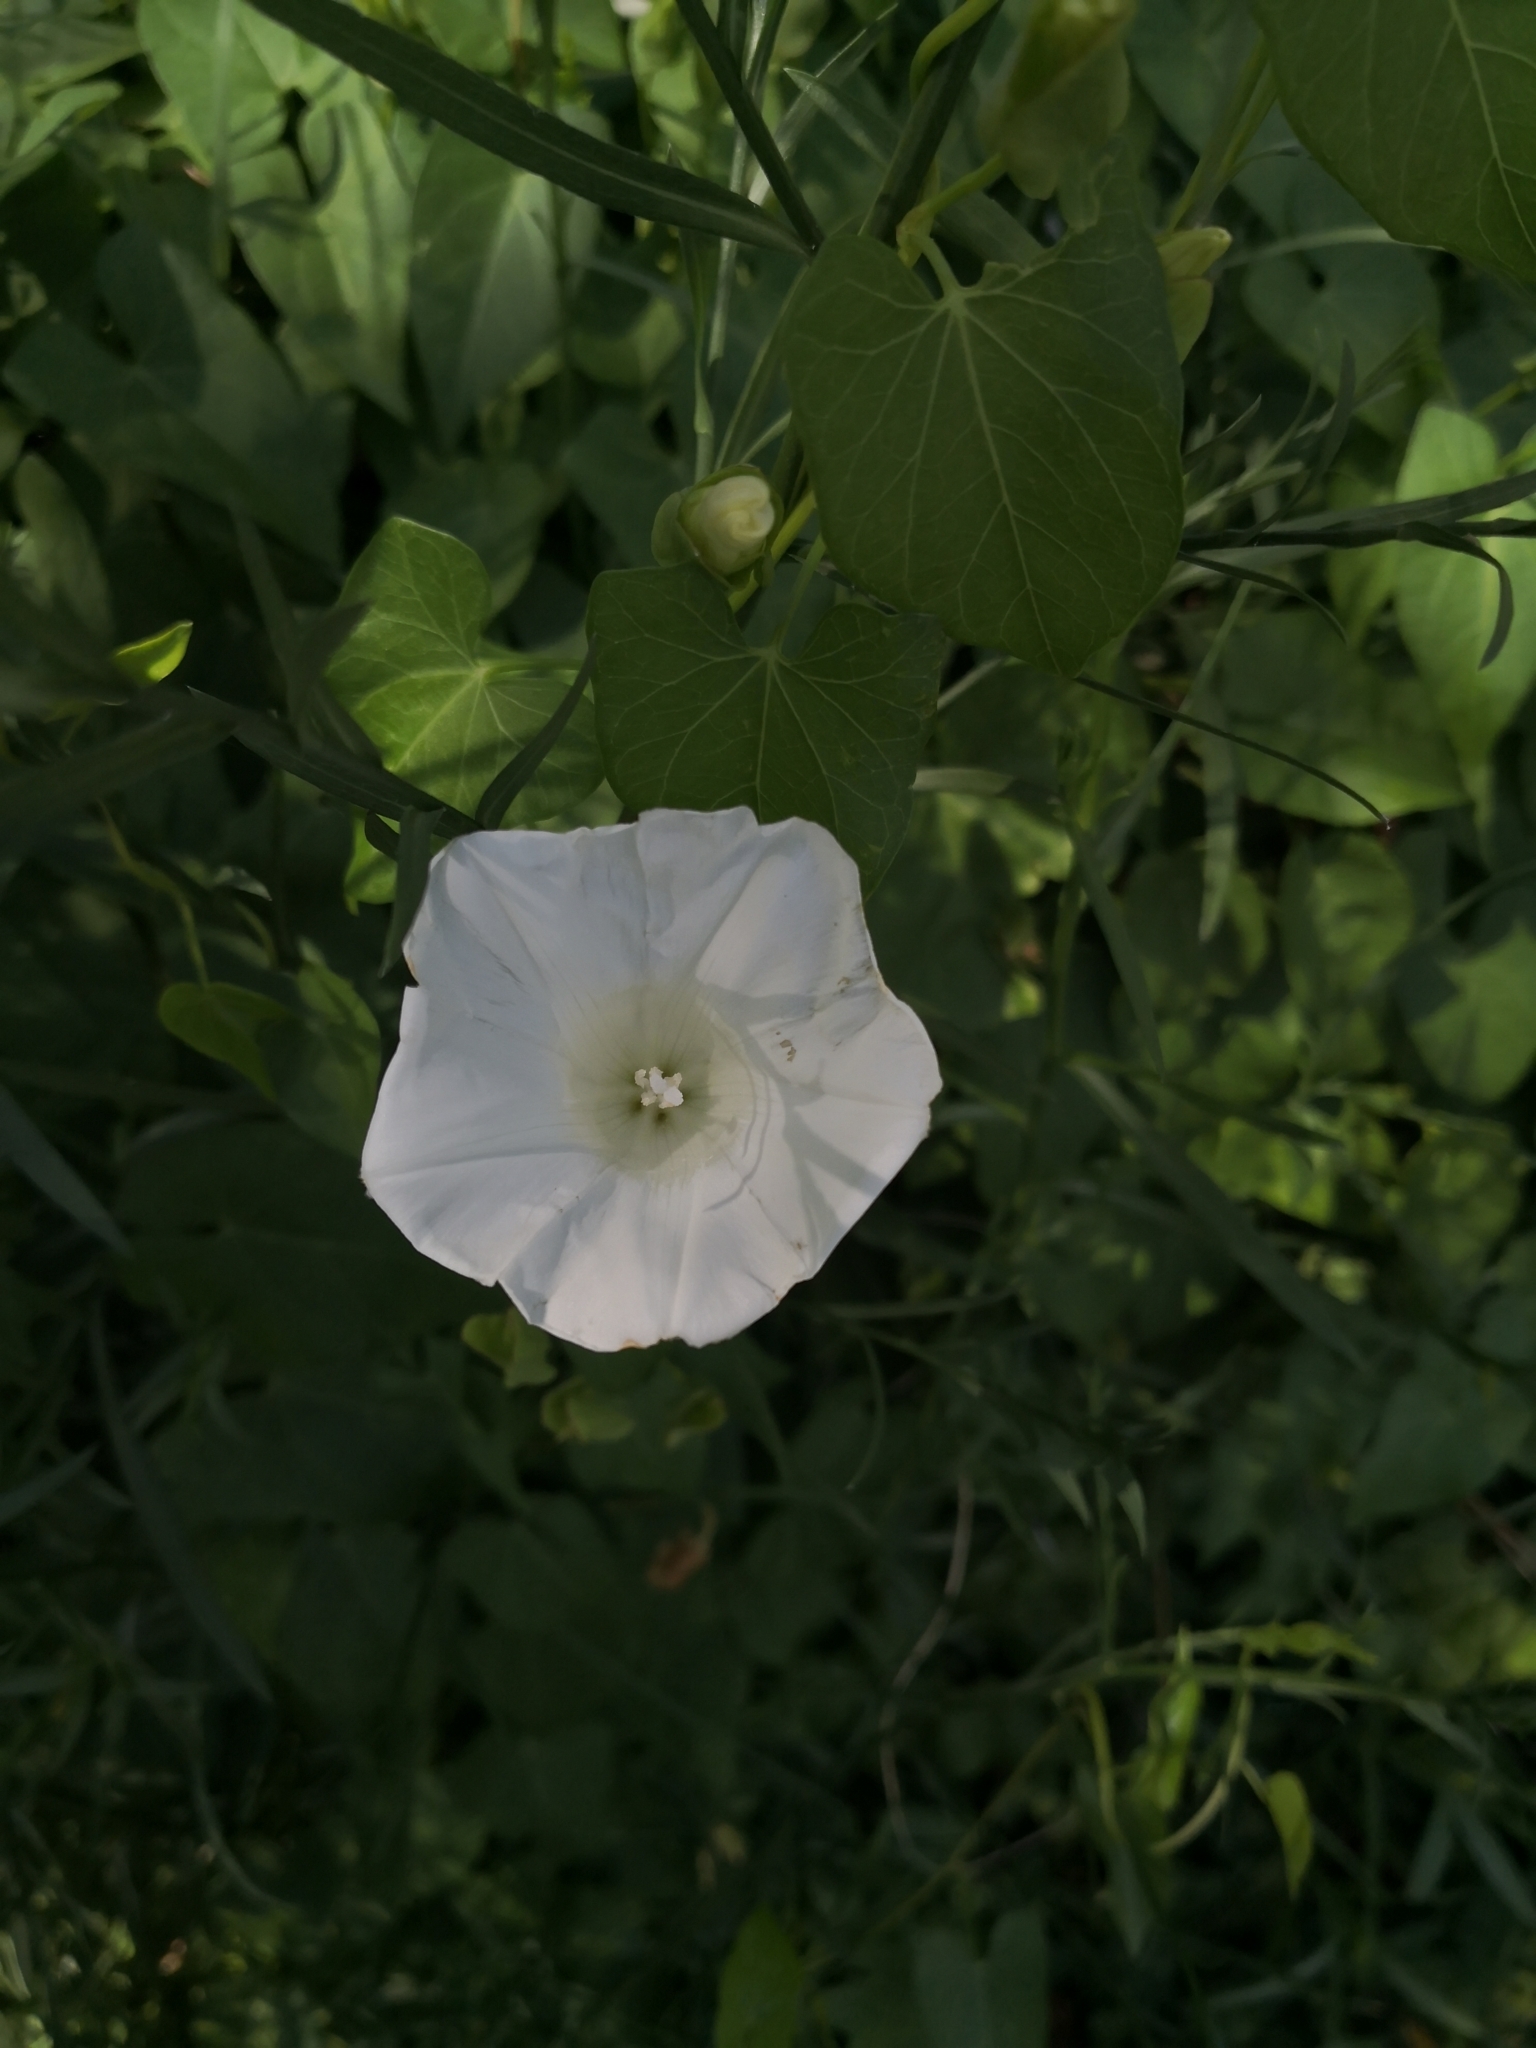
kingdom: Plantae
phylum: Tracheophyta
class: Magnoliopsida
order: Solanales
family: Convolvulaceae
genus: Calystegia
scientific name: Calystegia sepium
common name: Hedge bindweed
